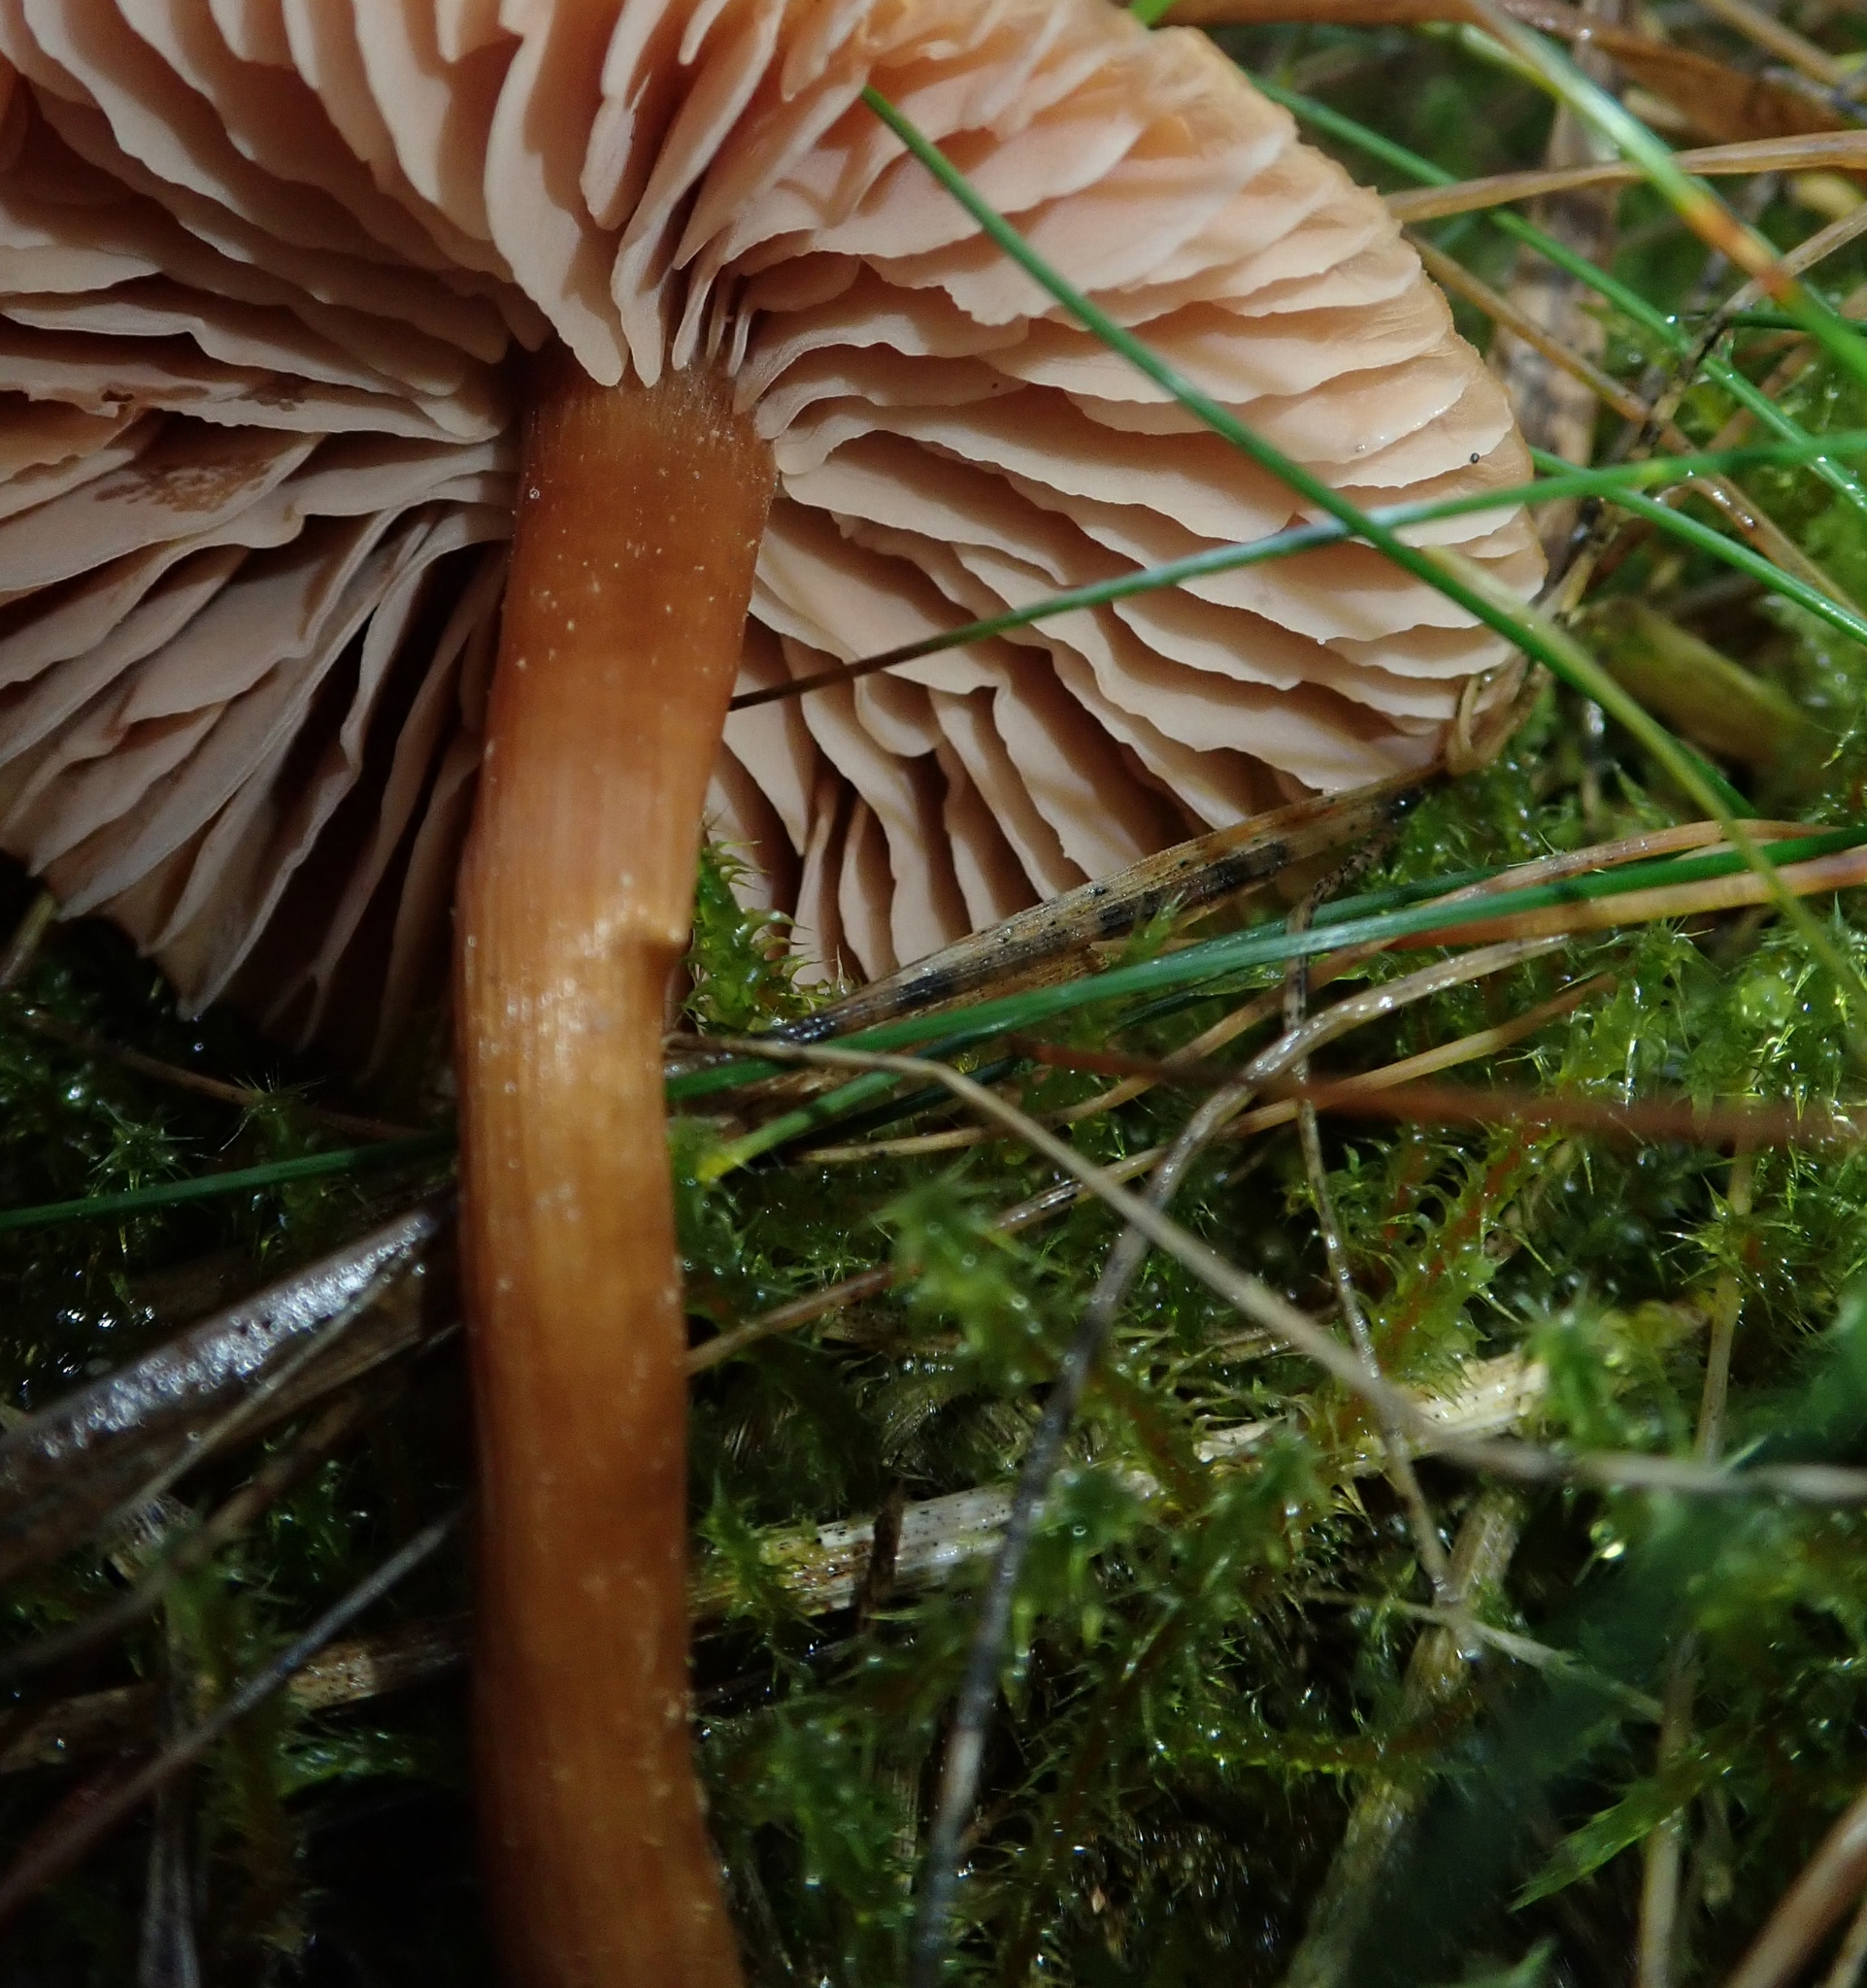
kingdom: Fungi
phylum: Basidiomycota
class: Agaricomycetes
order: Agaricales
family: Hydnangiaceae
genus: Laccaria
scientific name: Laccaria laccata
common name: Deceiver
